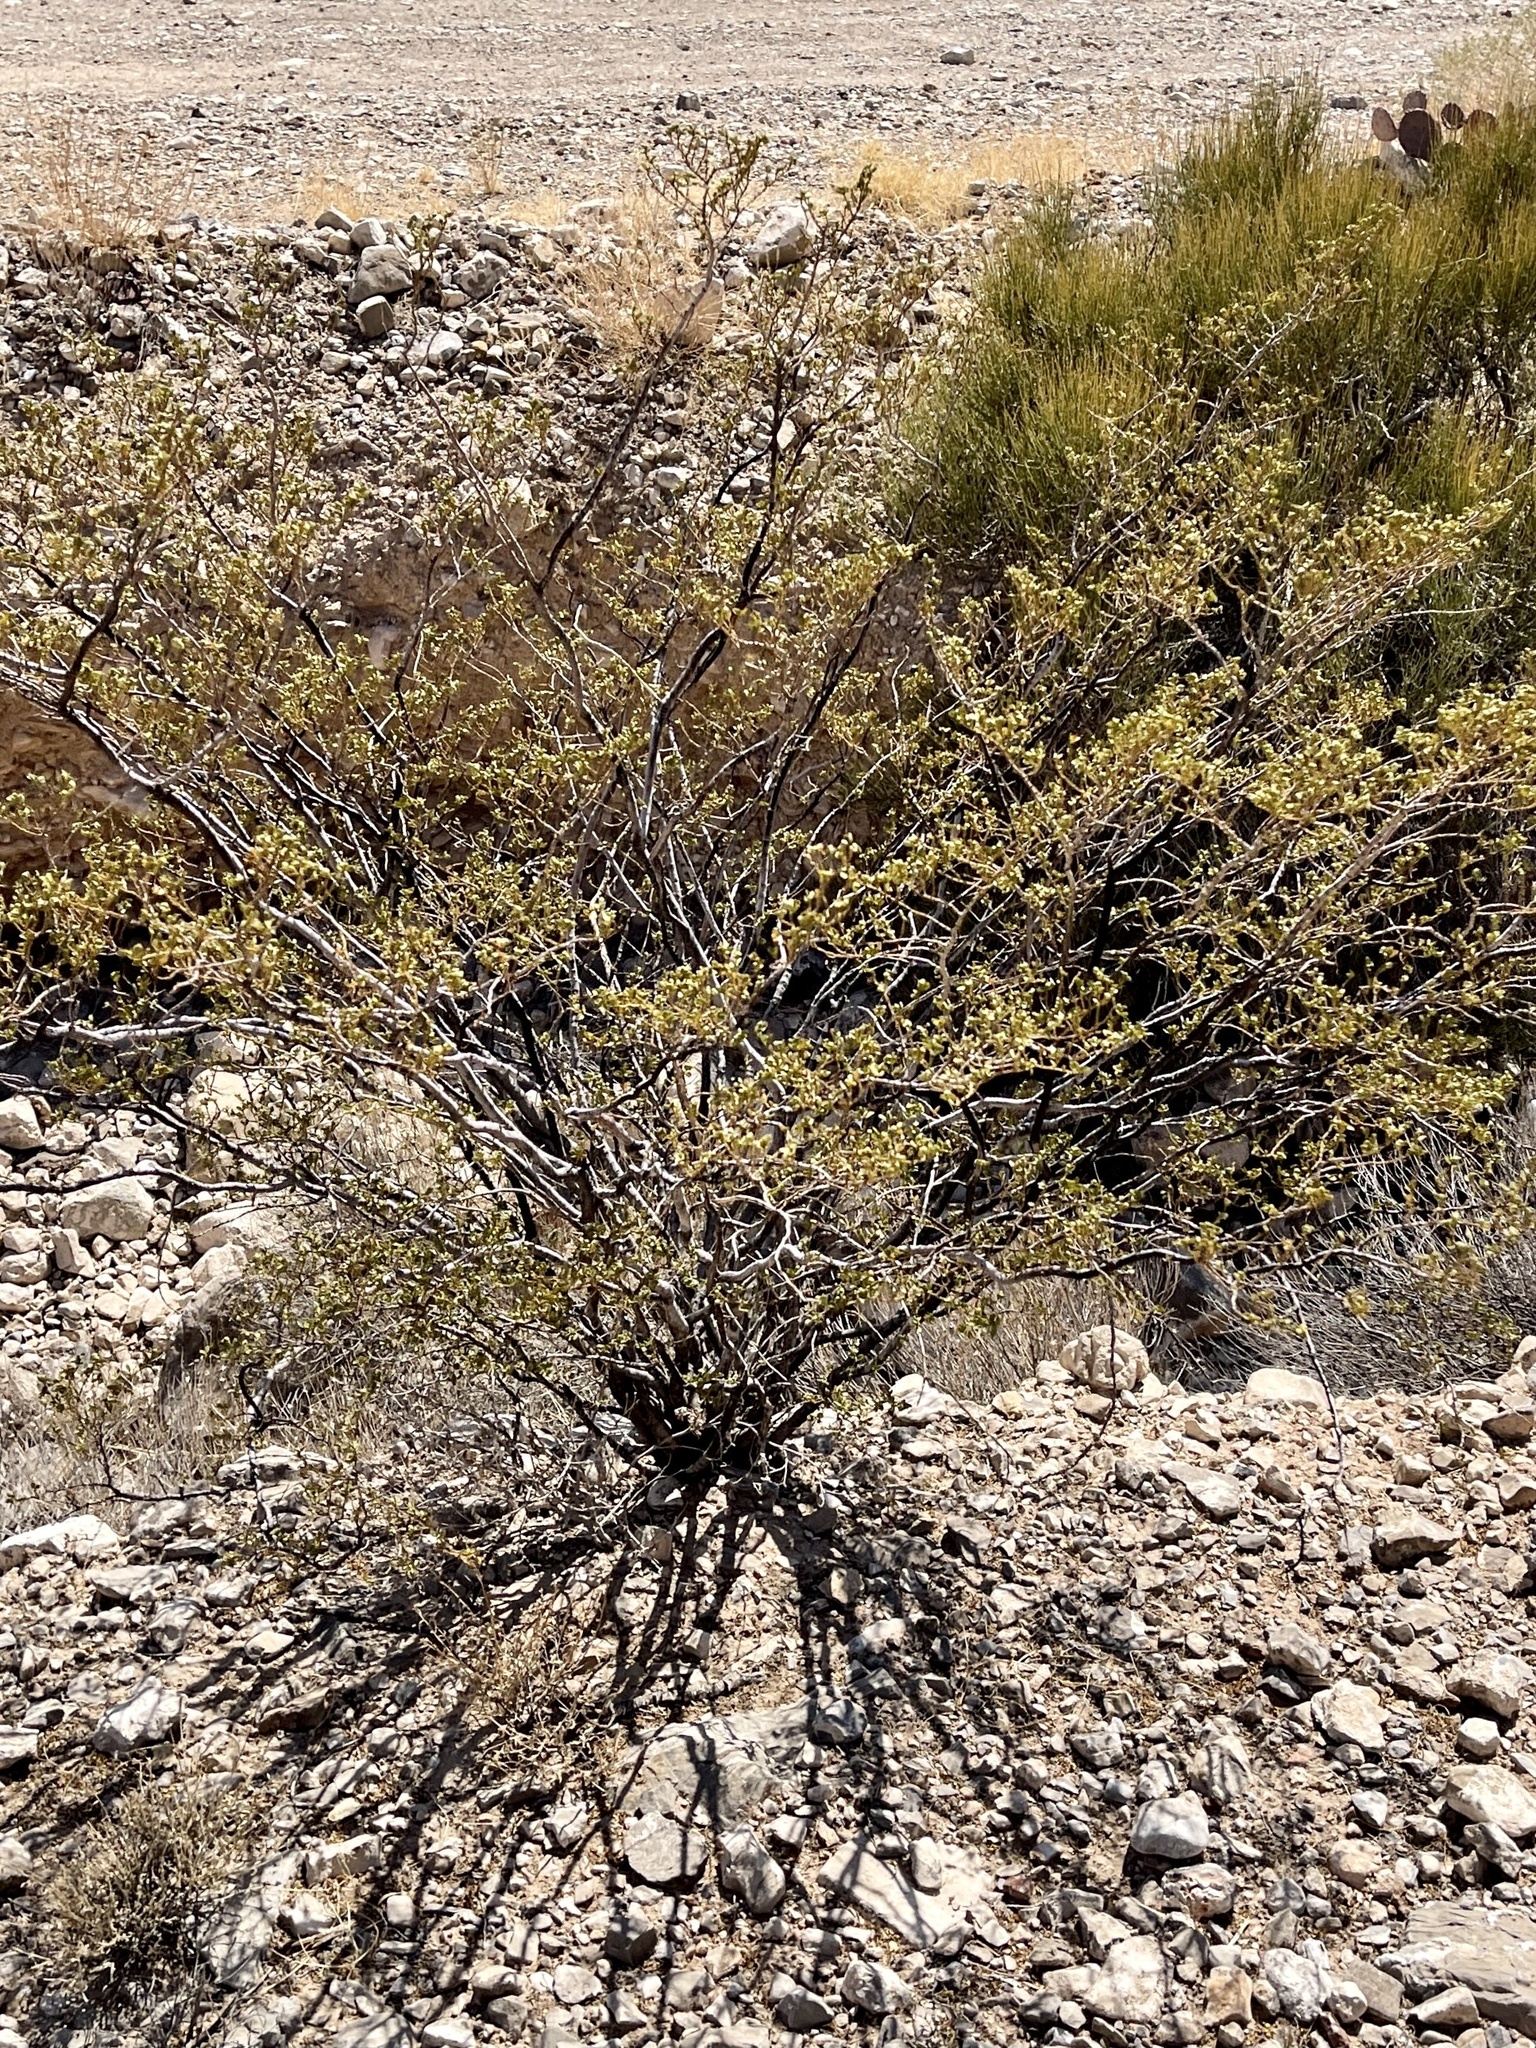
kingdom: Plantae
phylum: Tracheophyta
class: Magnoliopsida
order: Zygophyllales
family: Zygophyllaceae
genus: Larrea
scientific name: Larrea tridentata
